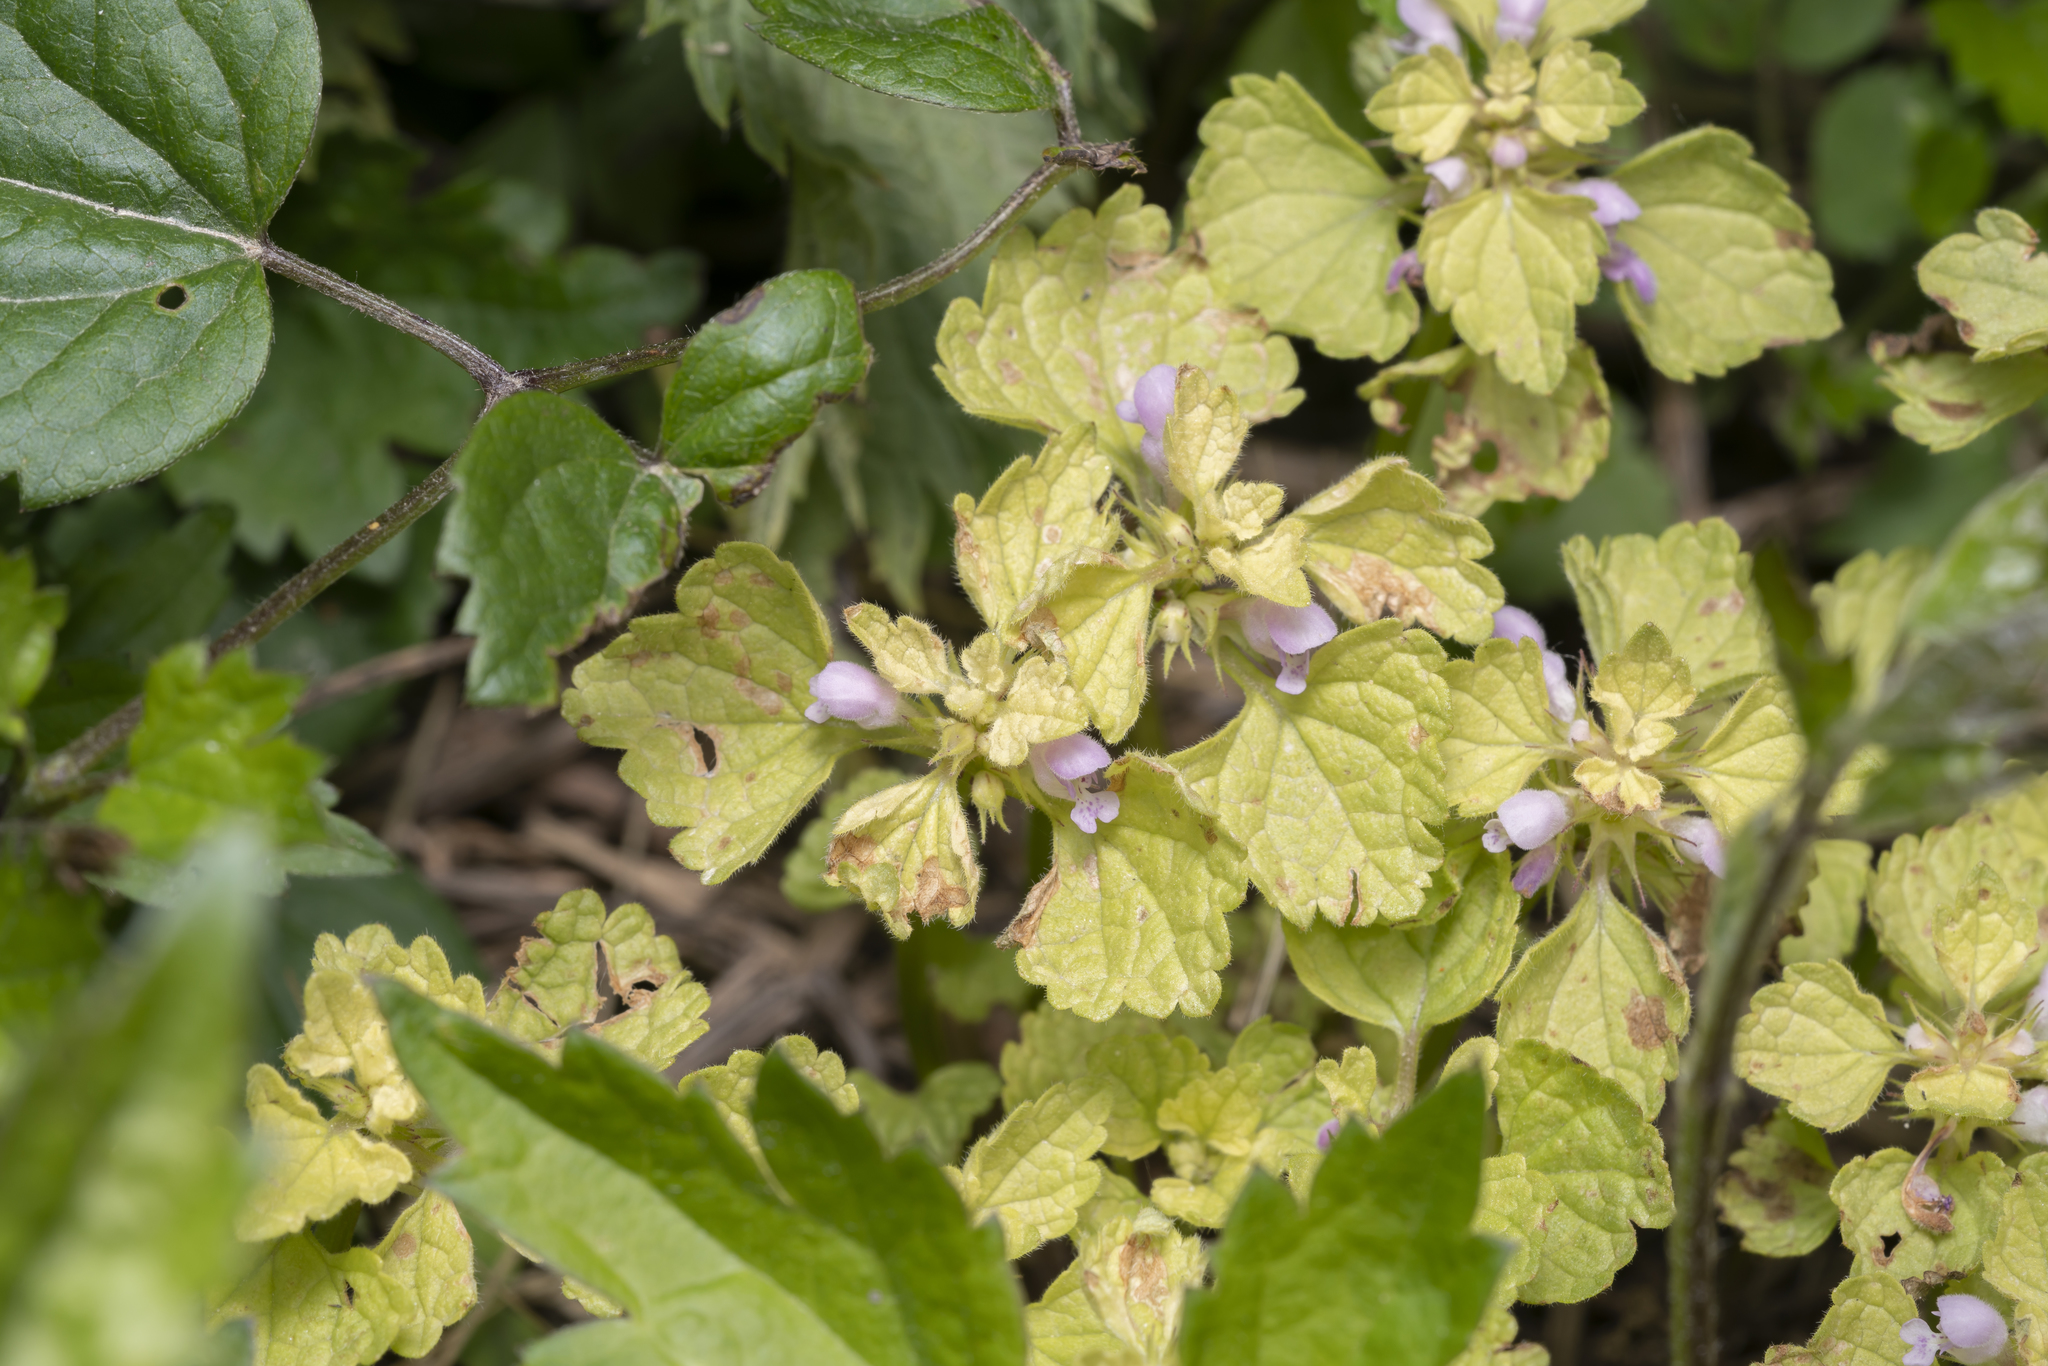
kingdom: Plantae
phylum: Tracheophyta
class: Magnoliopsida
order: Lamiales
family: Lamiaceae
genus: Lamium
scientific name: Lamium purpureum
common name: Red dead-nettle
